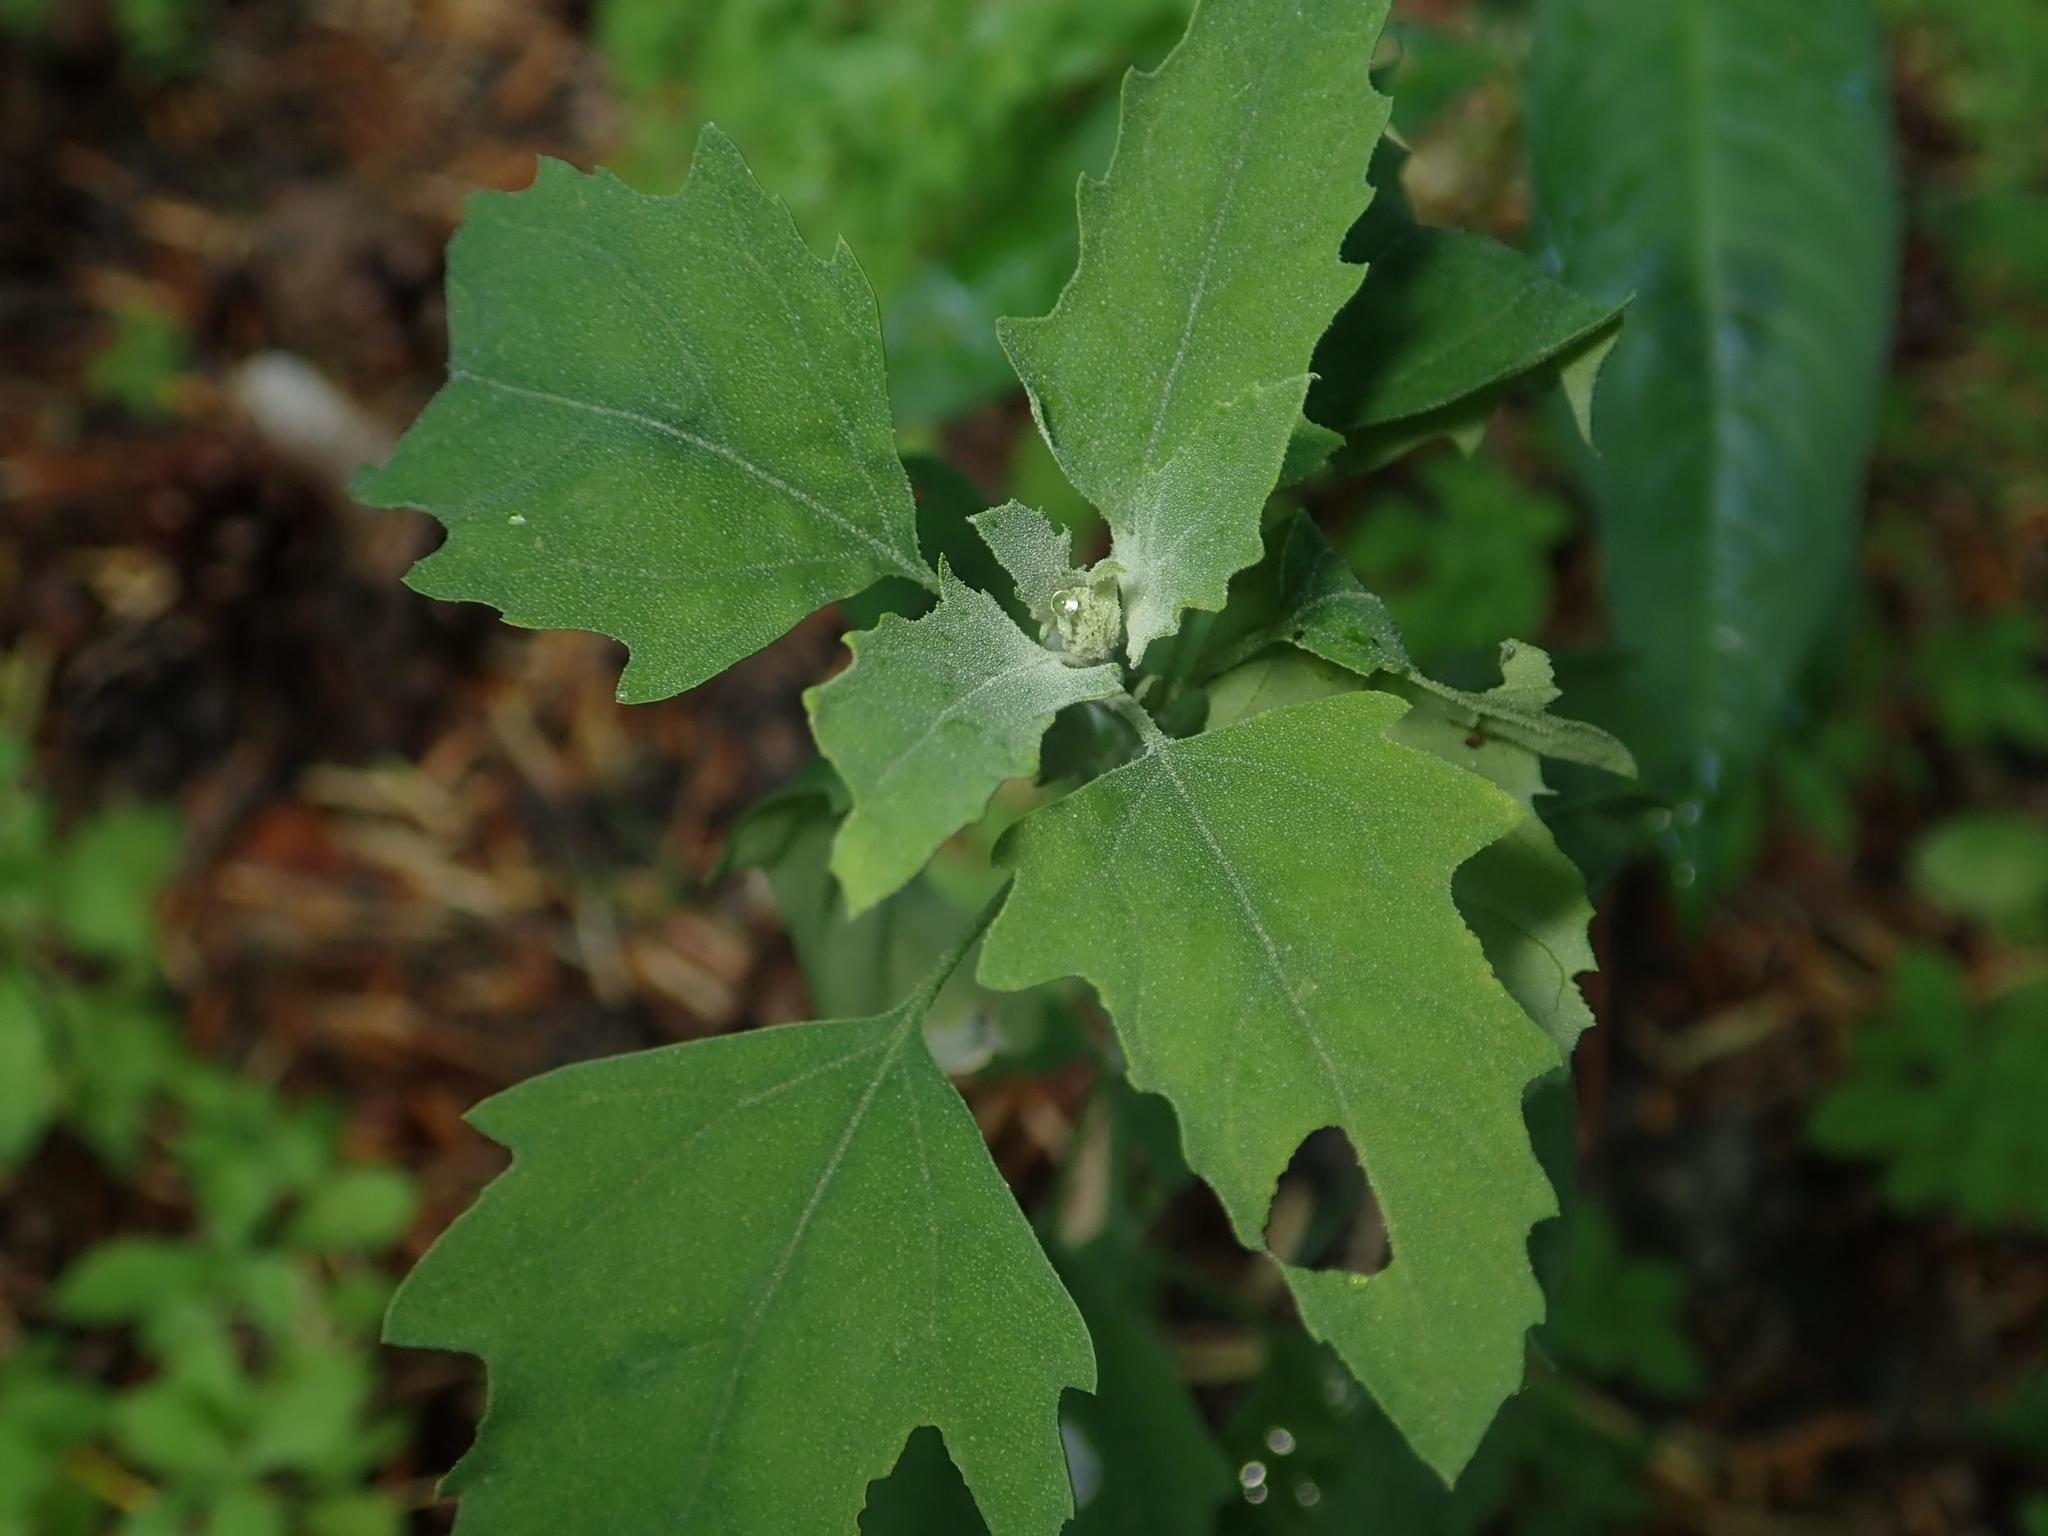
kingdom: Plantae
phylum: Tracheophyta
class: Magnoliopsida
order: Caryophyllales
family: Amaranthaceae
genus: Chenopodium
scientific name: Chenopodium album
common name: Fat-hen
